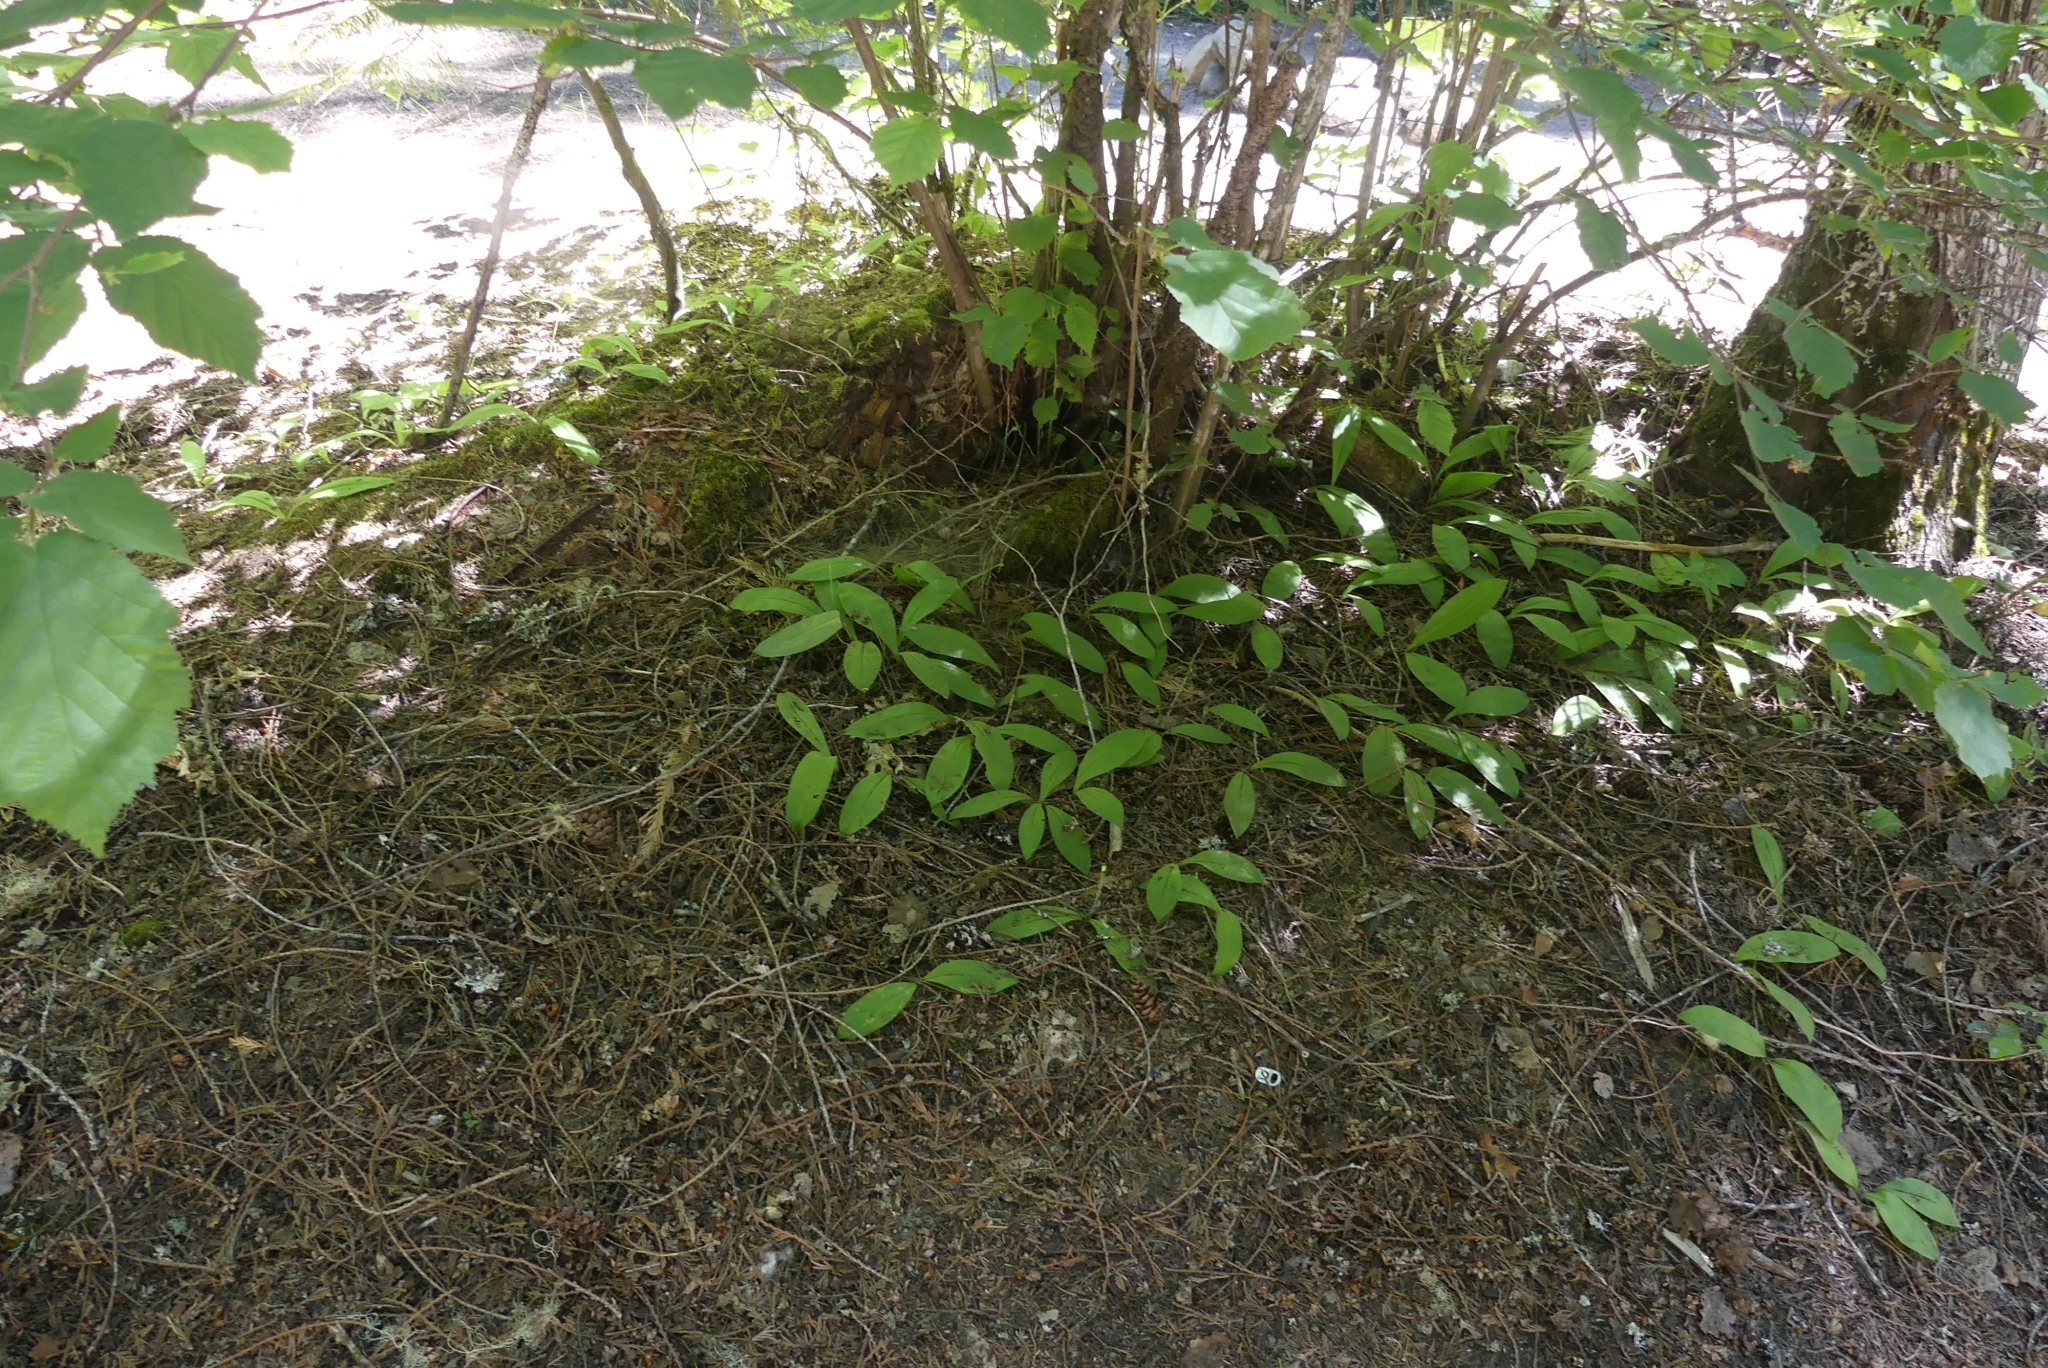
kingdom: Plantae
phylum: Tracheophyta
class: Liliopsida
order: Liliales
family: Liliaceae
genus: Clintonia
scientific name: Clintonia uniflora
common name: Queen's cup
